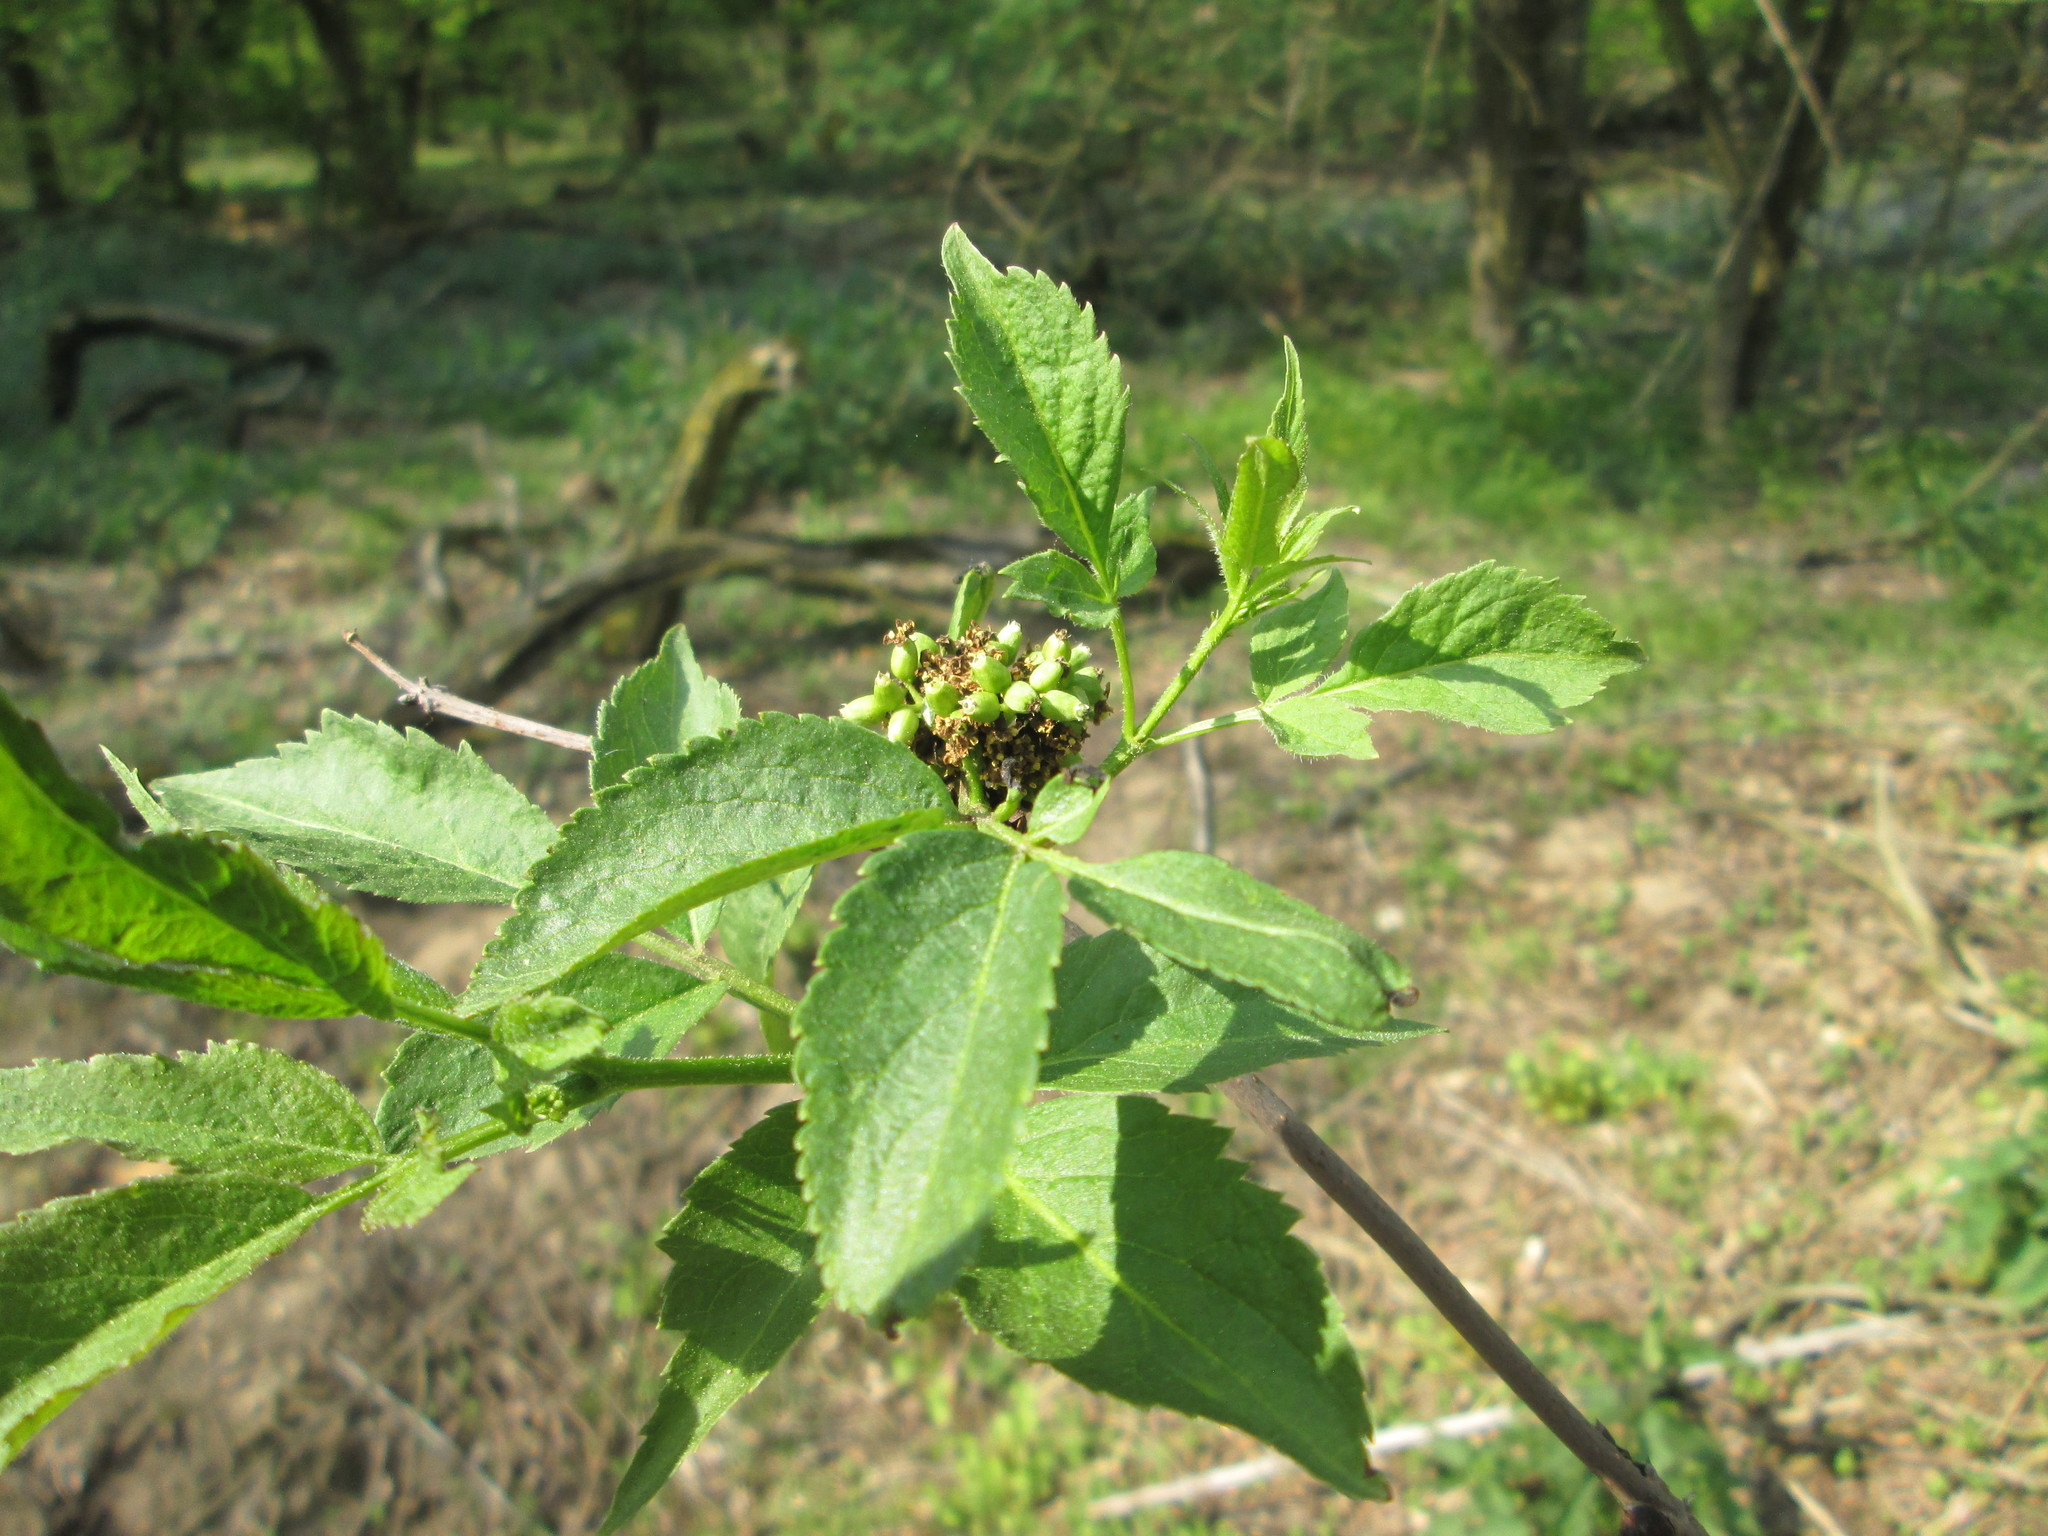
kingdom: Plantae
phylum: Tracheophyta
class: Magnoliopsida
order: Dipsacales
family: Viburnaceae
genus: Sambucus
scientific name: Sambucus racemosa
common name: Red-berried elder
